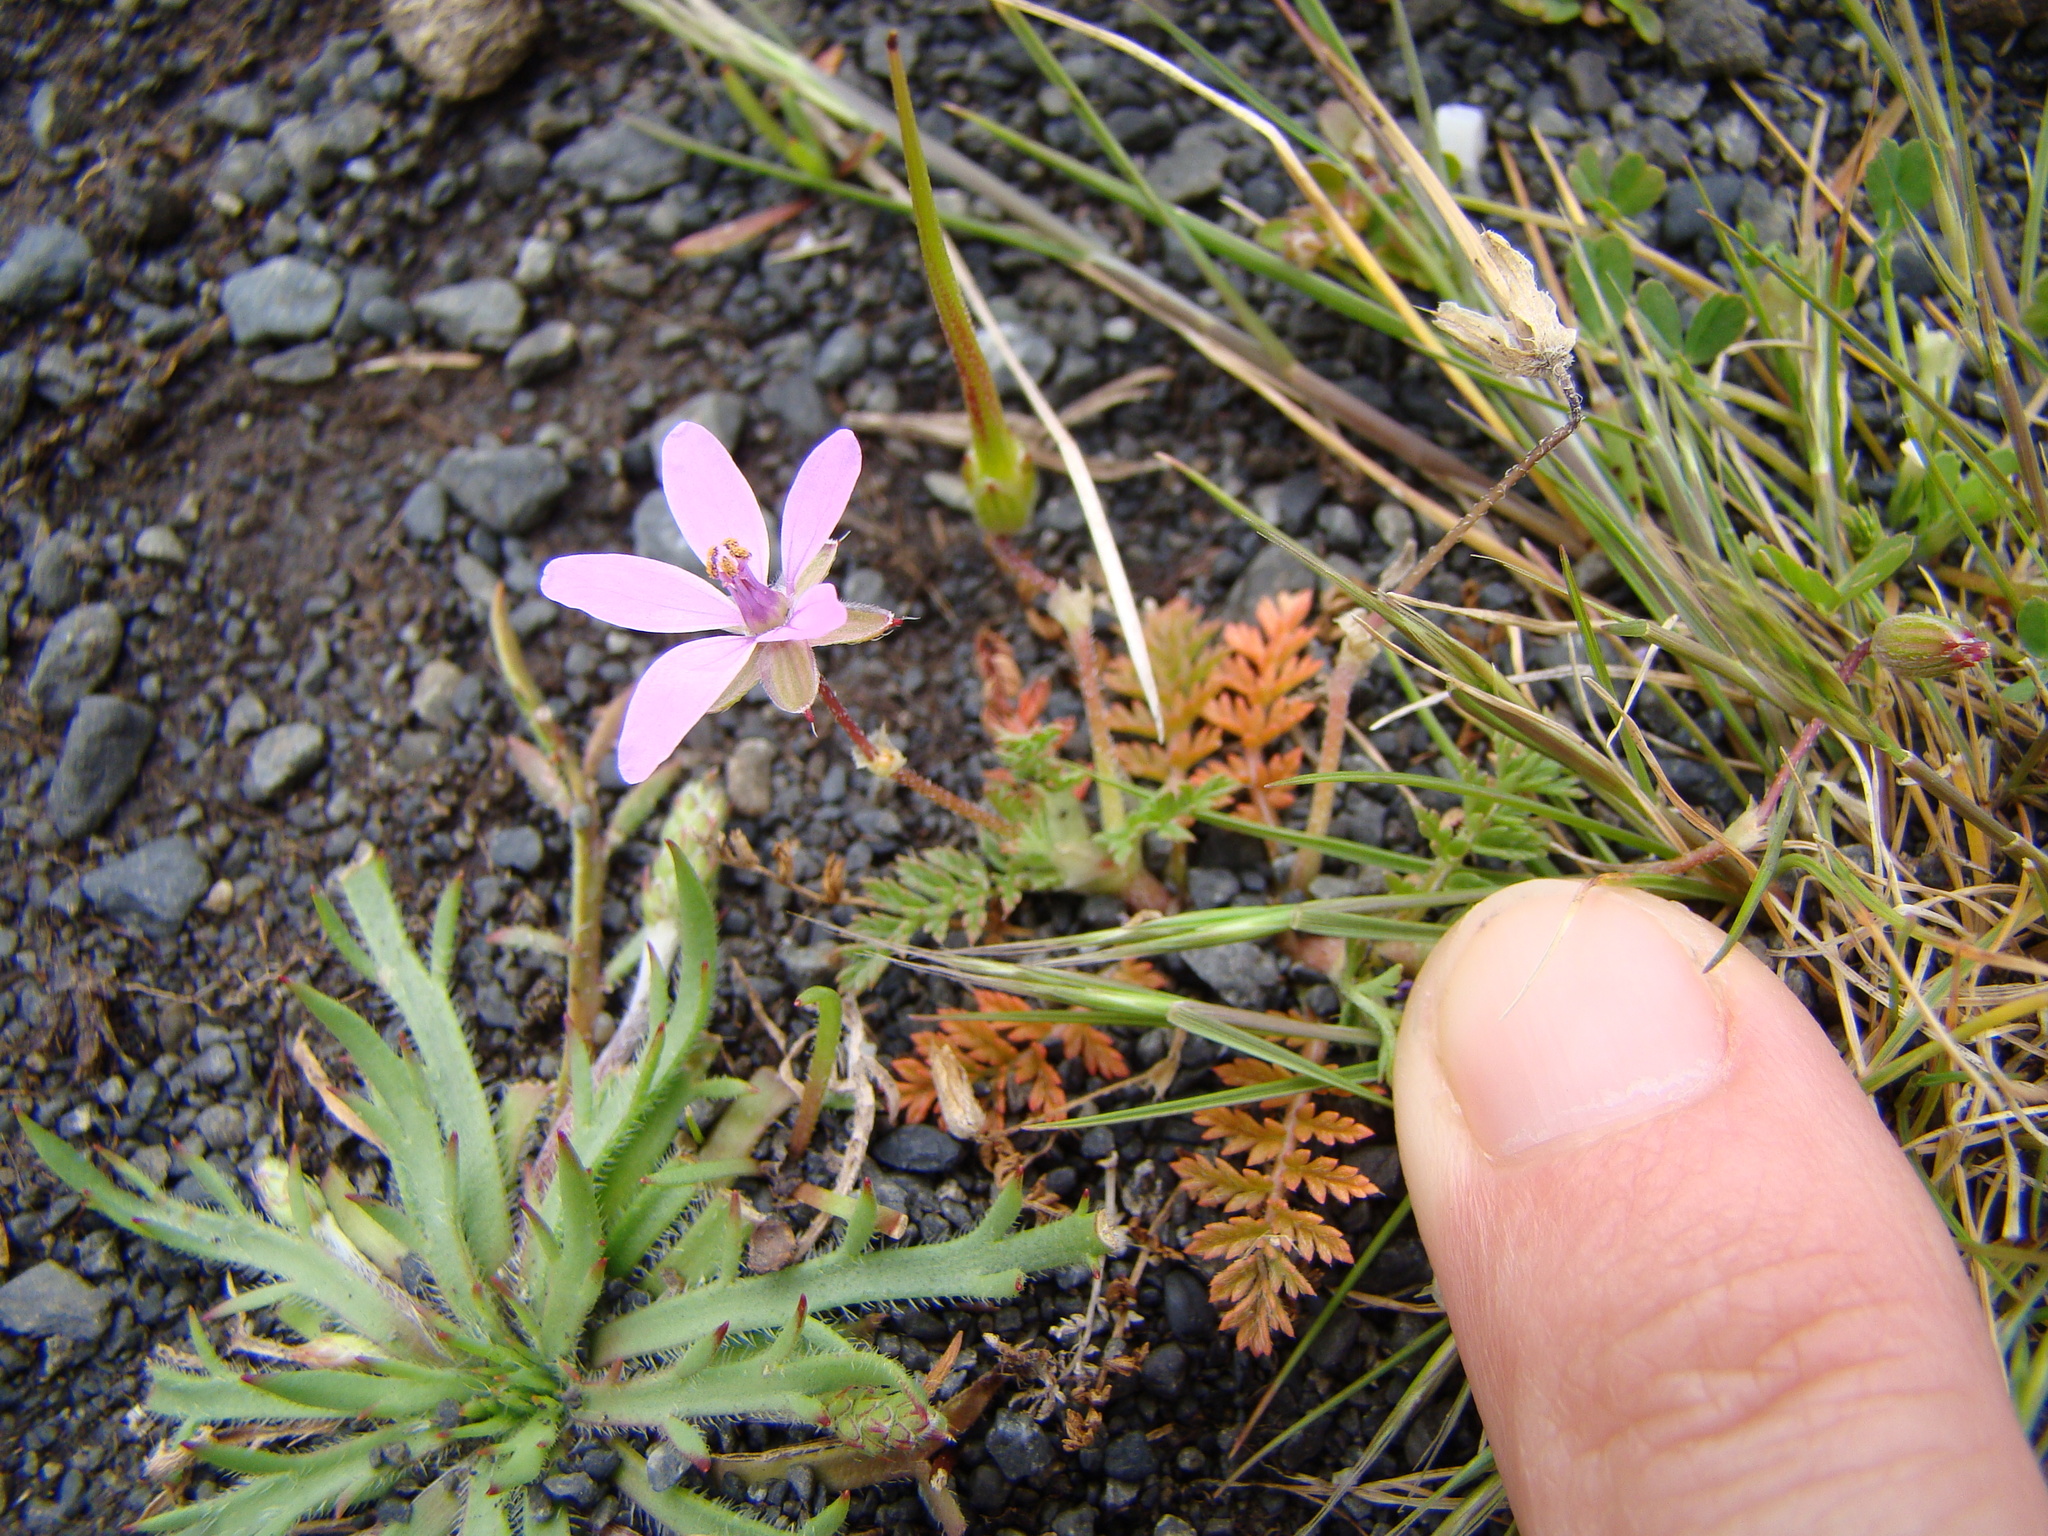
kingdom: Plantae
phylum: Tracheophyta
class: Magnoliopsida
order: Geraniales
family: Geraniaceae
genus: Erodium
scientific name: Erodium cicutarium
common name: Common stork's-bill
